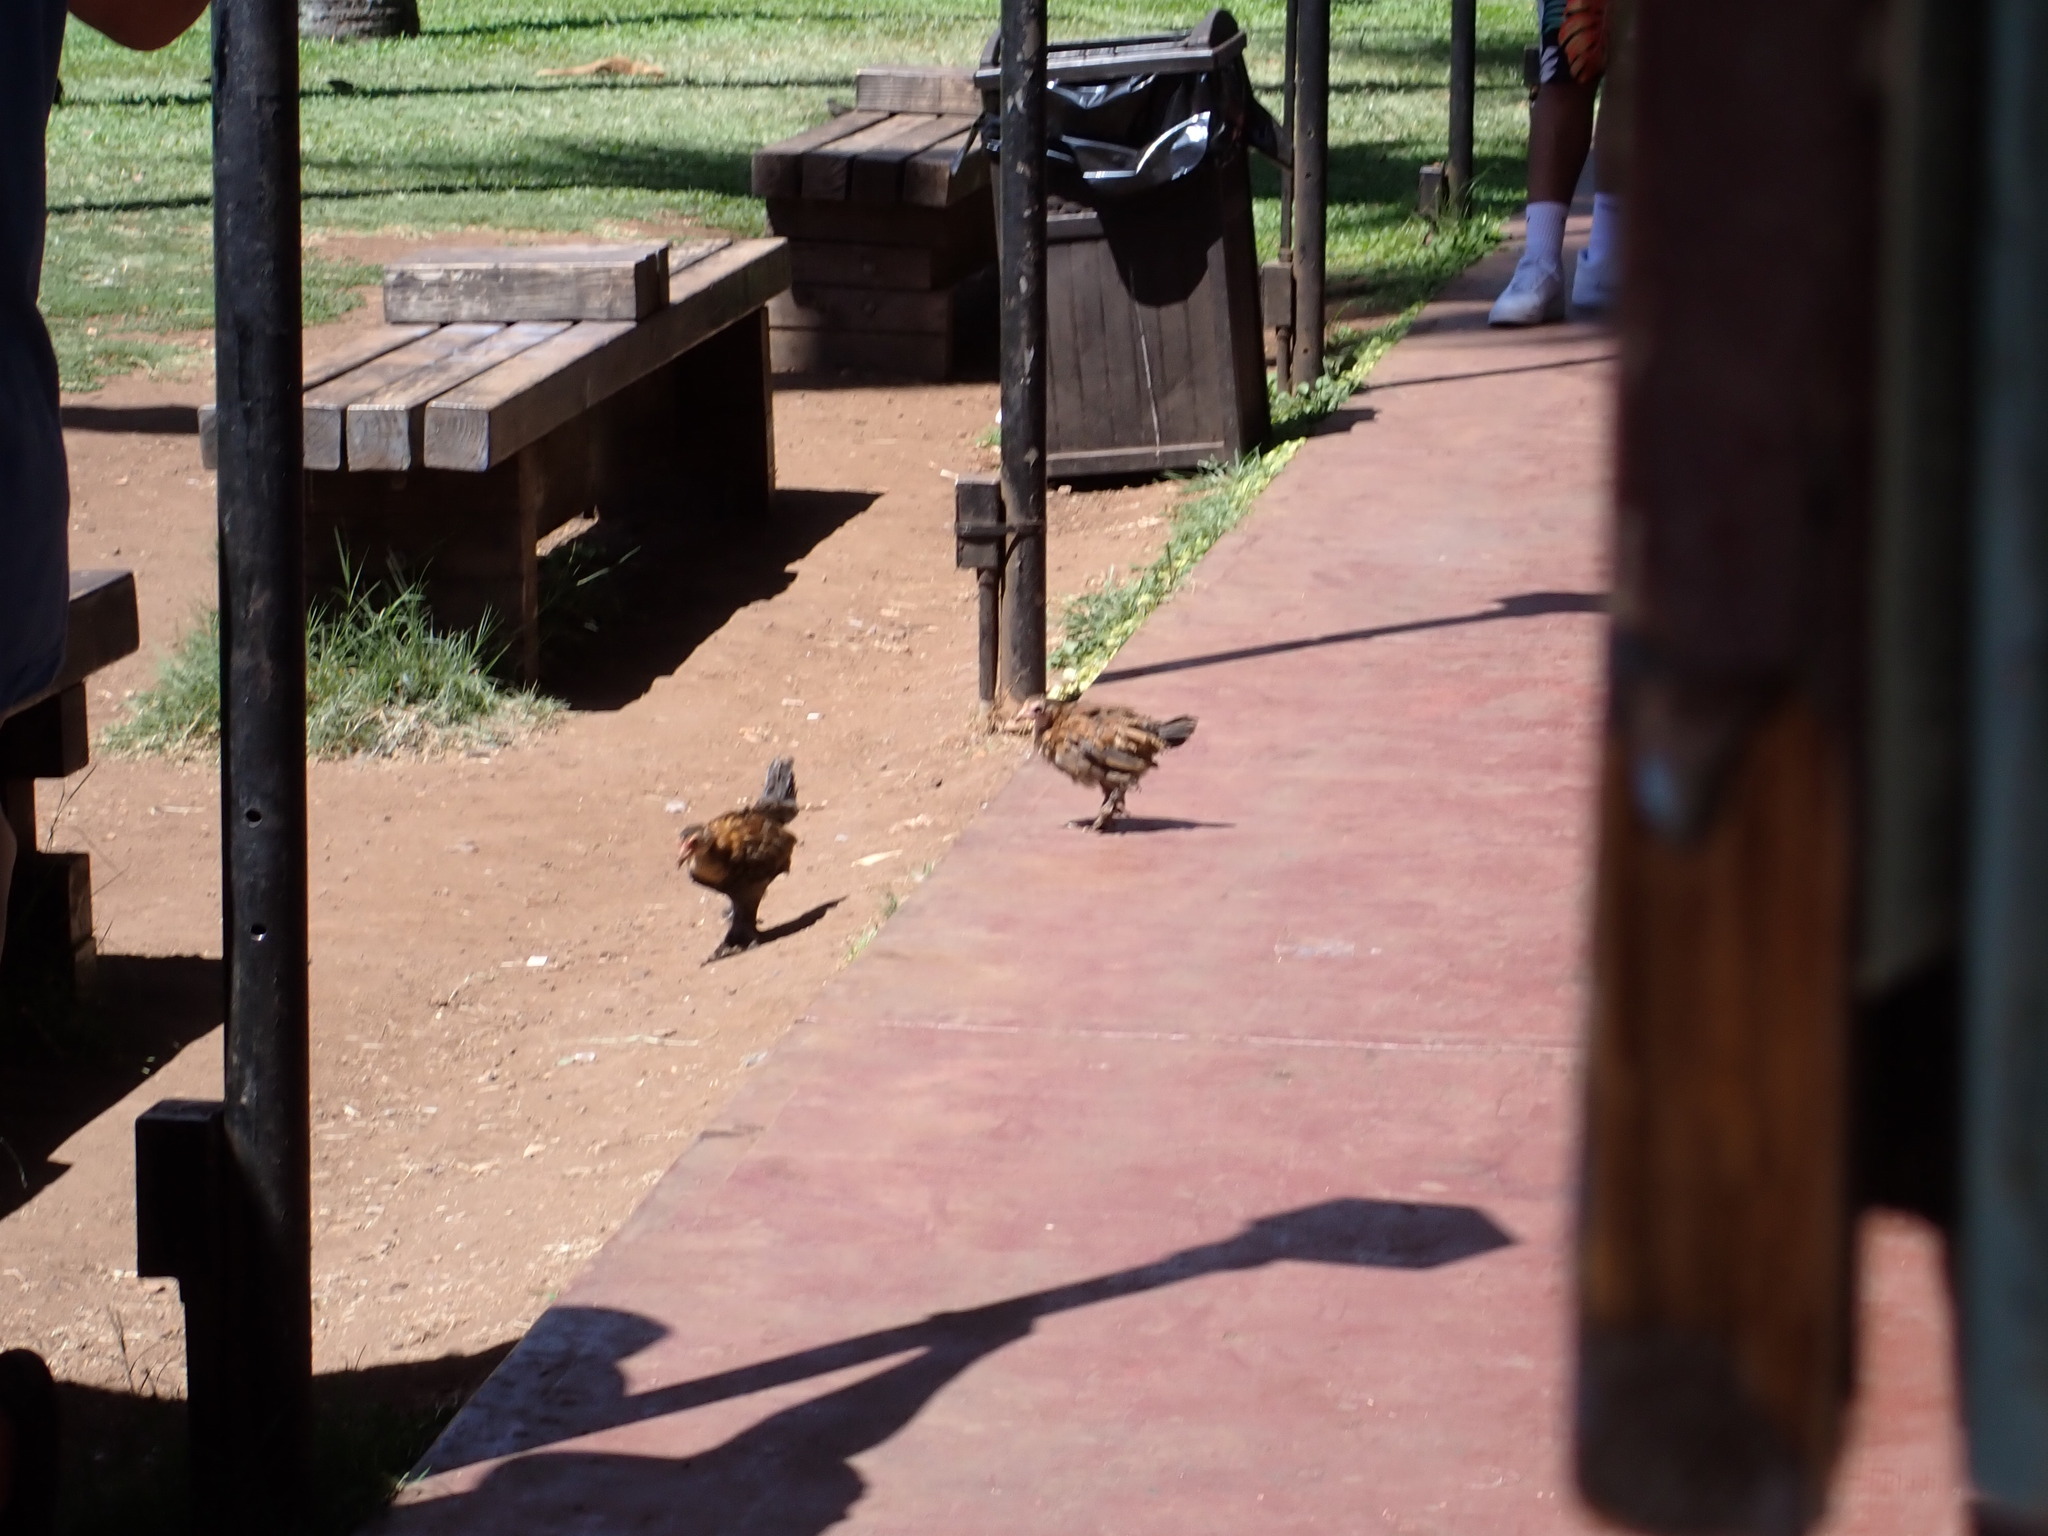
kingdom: Animalia
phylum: Chordata
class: Aves
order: Galliformes
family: Phasianidae
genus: Gallus
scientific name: Gallus gallus
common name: Red junglefowl
